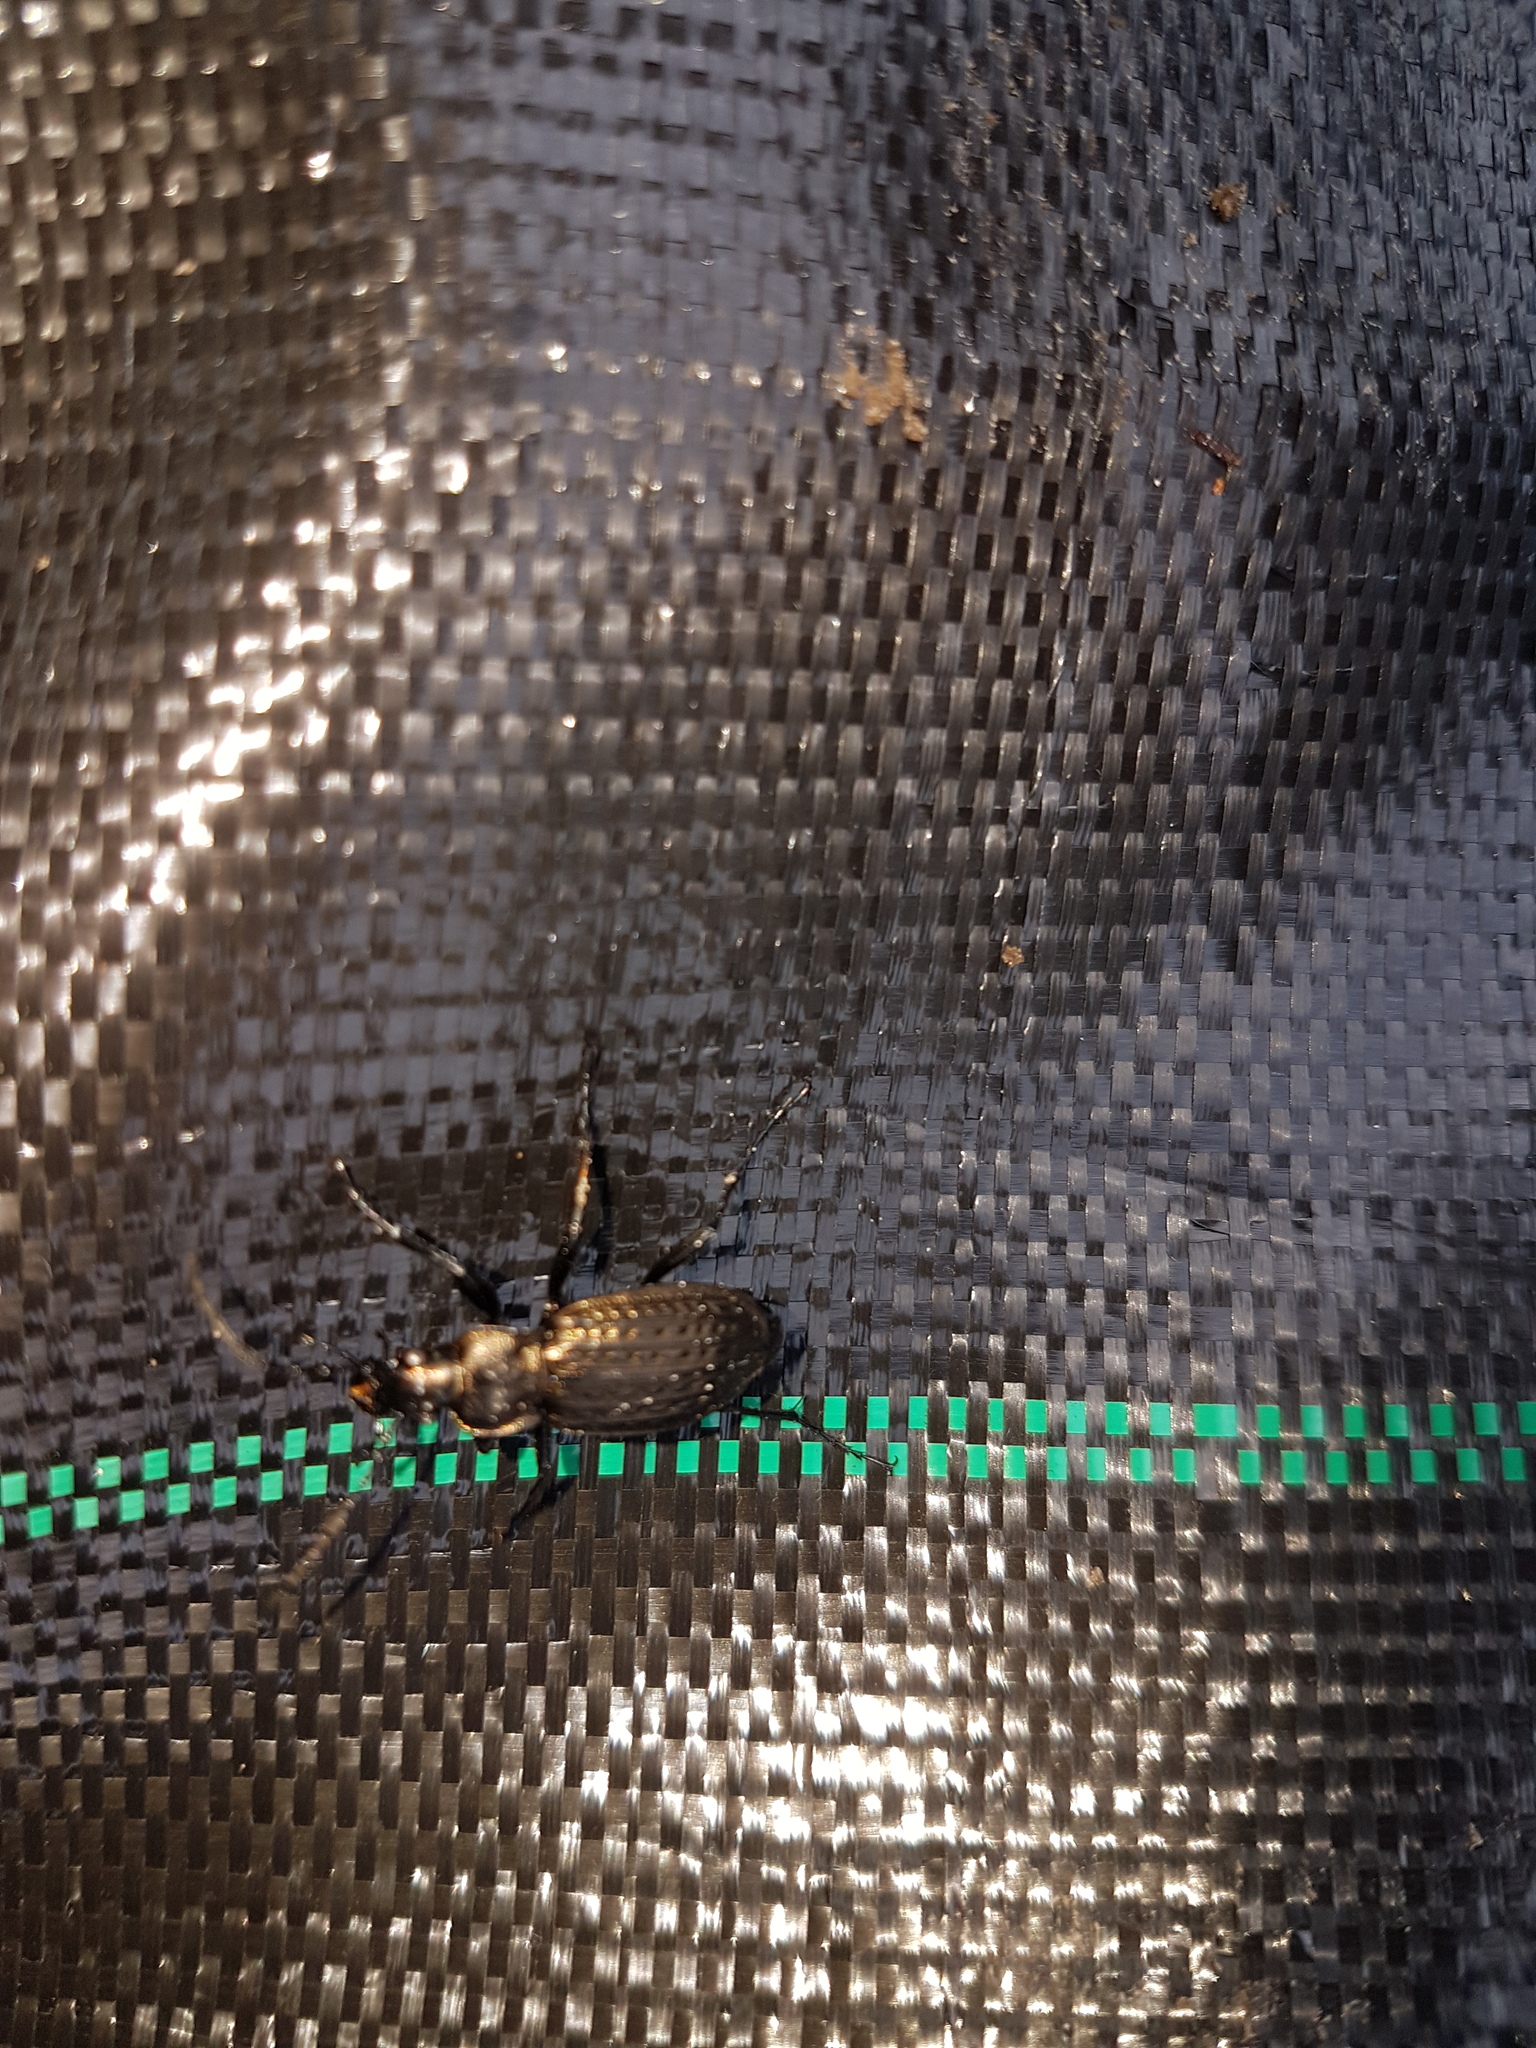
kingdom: Animalia
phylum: Arthropoda
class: Insecta
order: Coleoptera
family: Carabidae
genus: Carabus
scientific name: Carabus granulatus
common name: Granulate ground beetle
